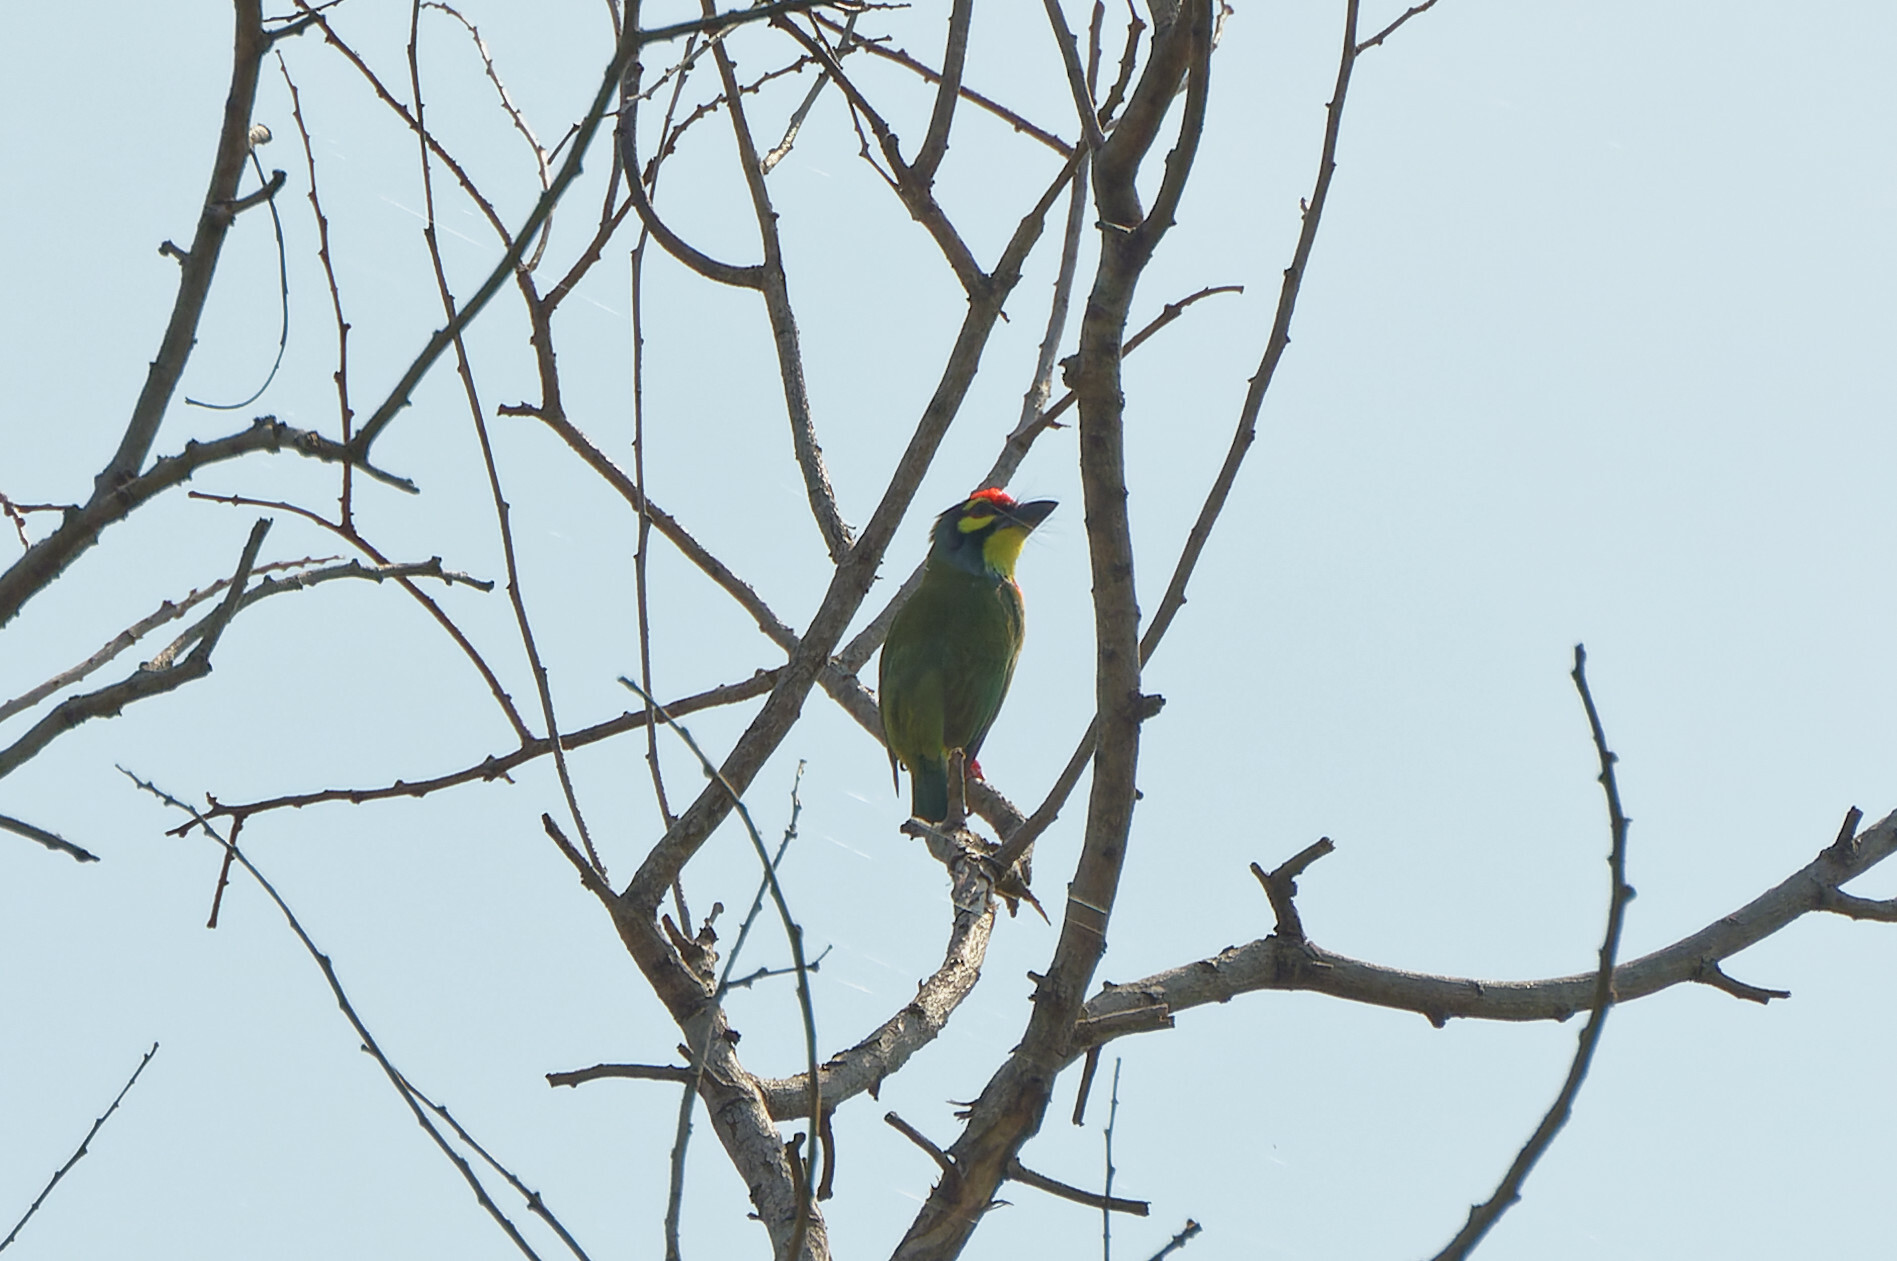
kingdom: Animalia
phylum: Chordata
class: Aves
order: Piciformes
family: Megalaimidae
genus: Psilopogon
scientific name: Psilopogon haemacephalus
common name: Coppersmith barbet
